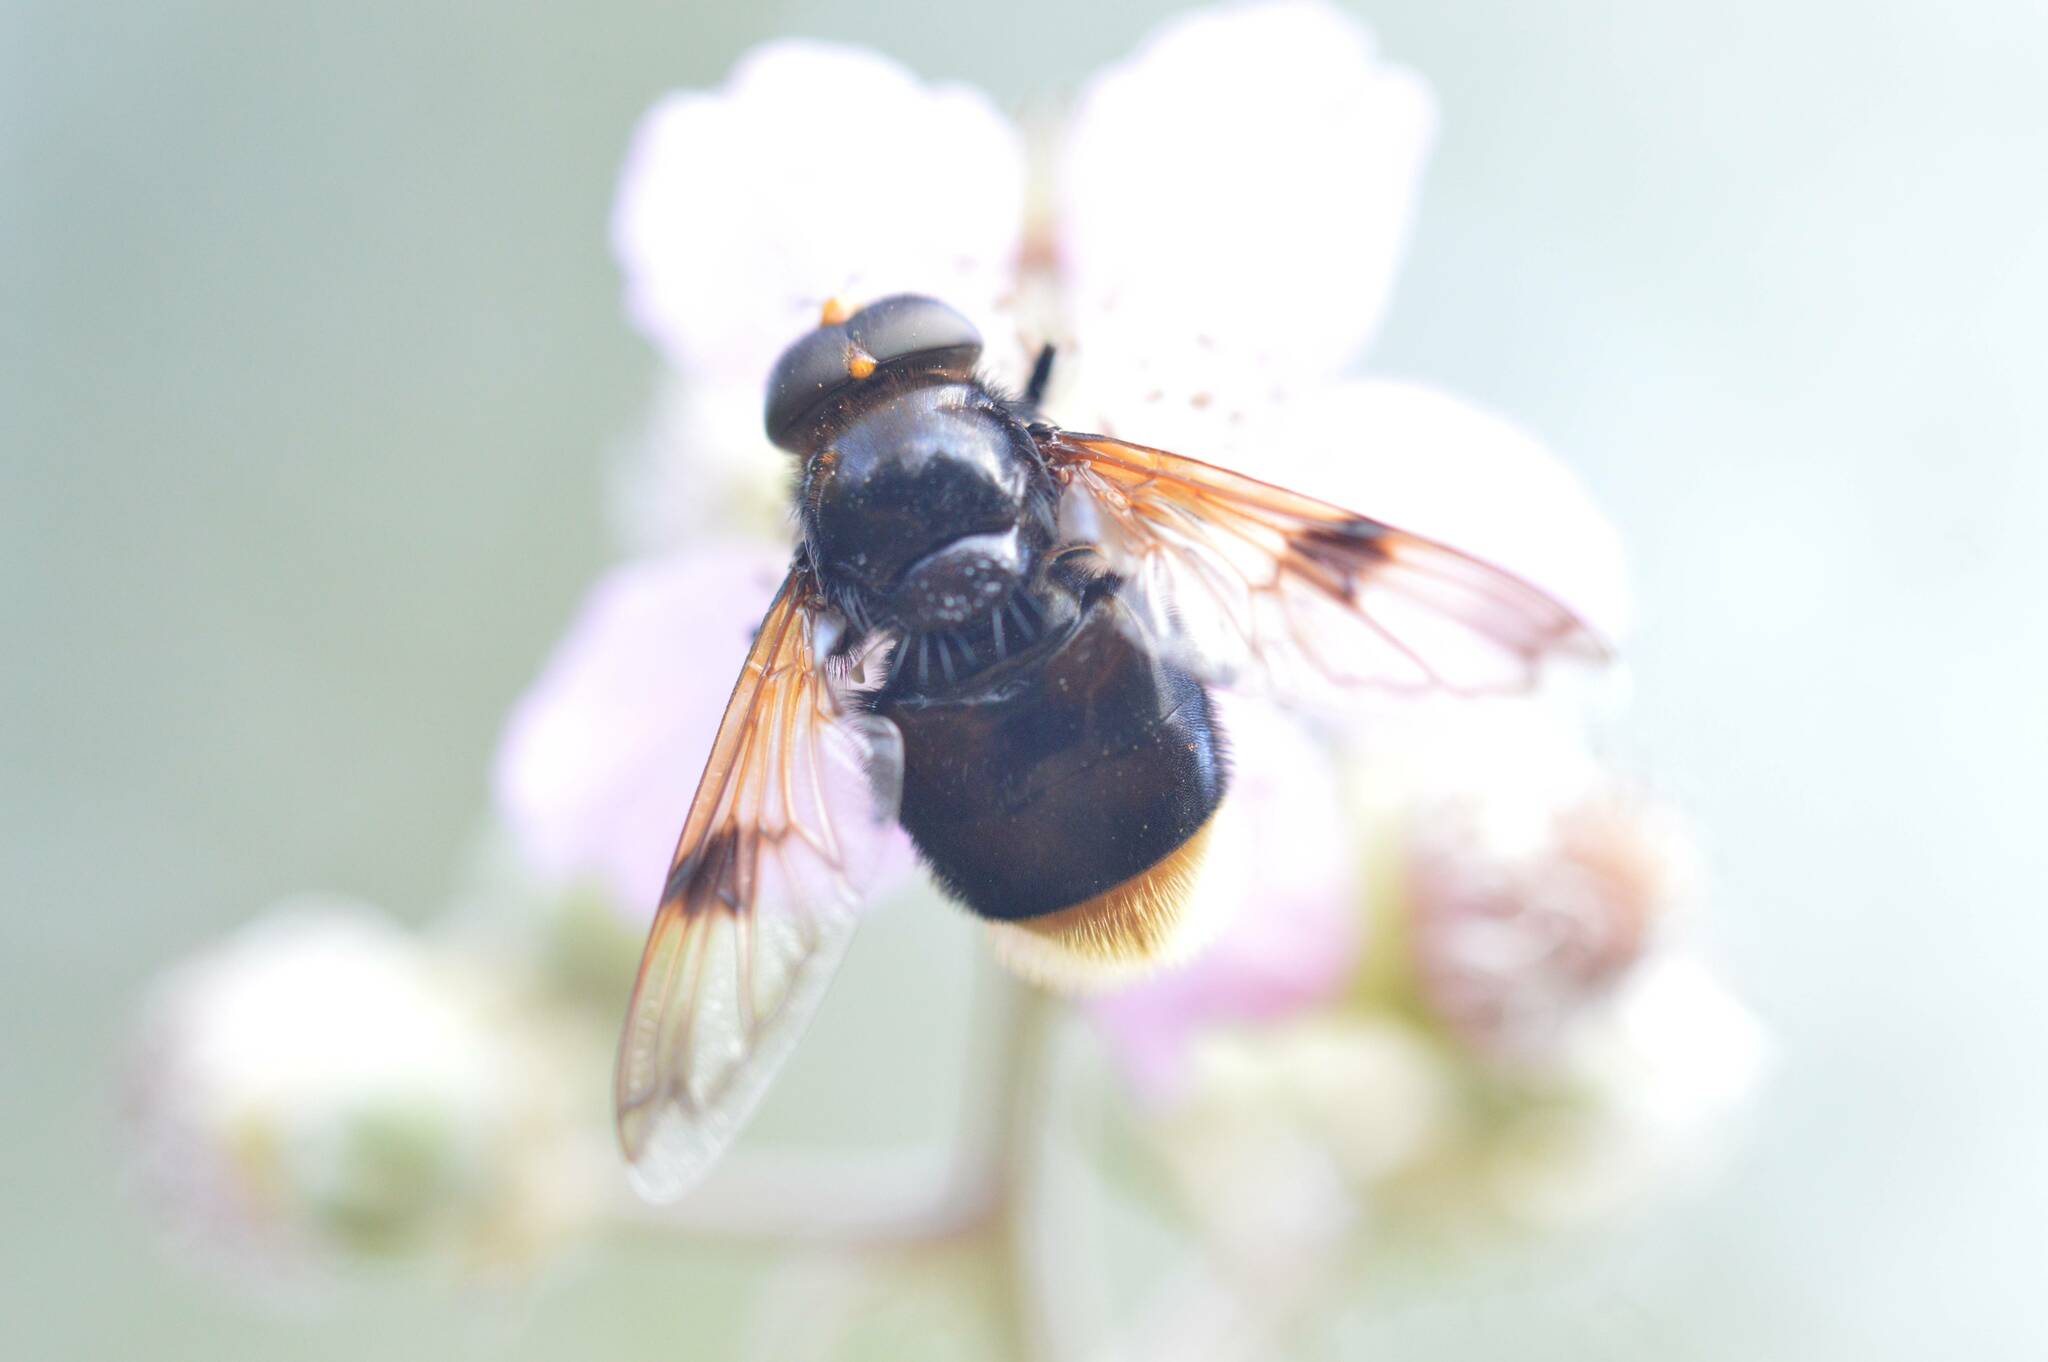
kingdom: Animalia
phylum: Arthropoda
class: Insecta
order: Diptera
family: Syrphidae
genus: Volucella
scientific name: Volucella liquida
